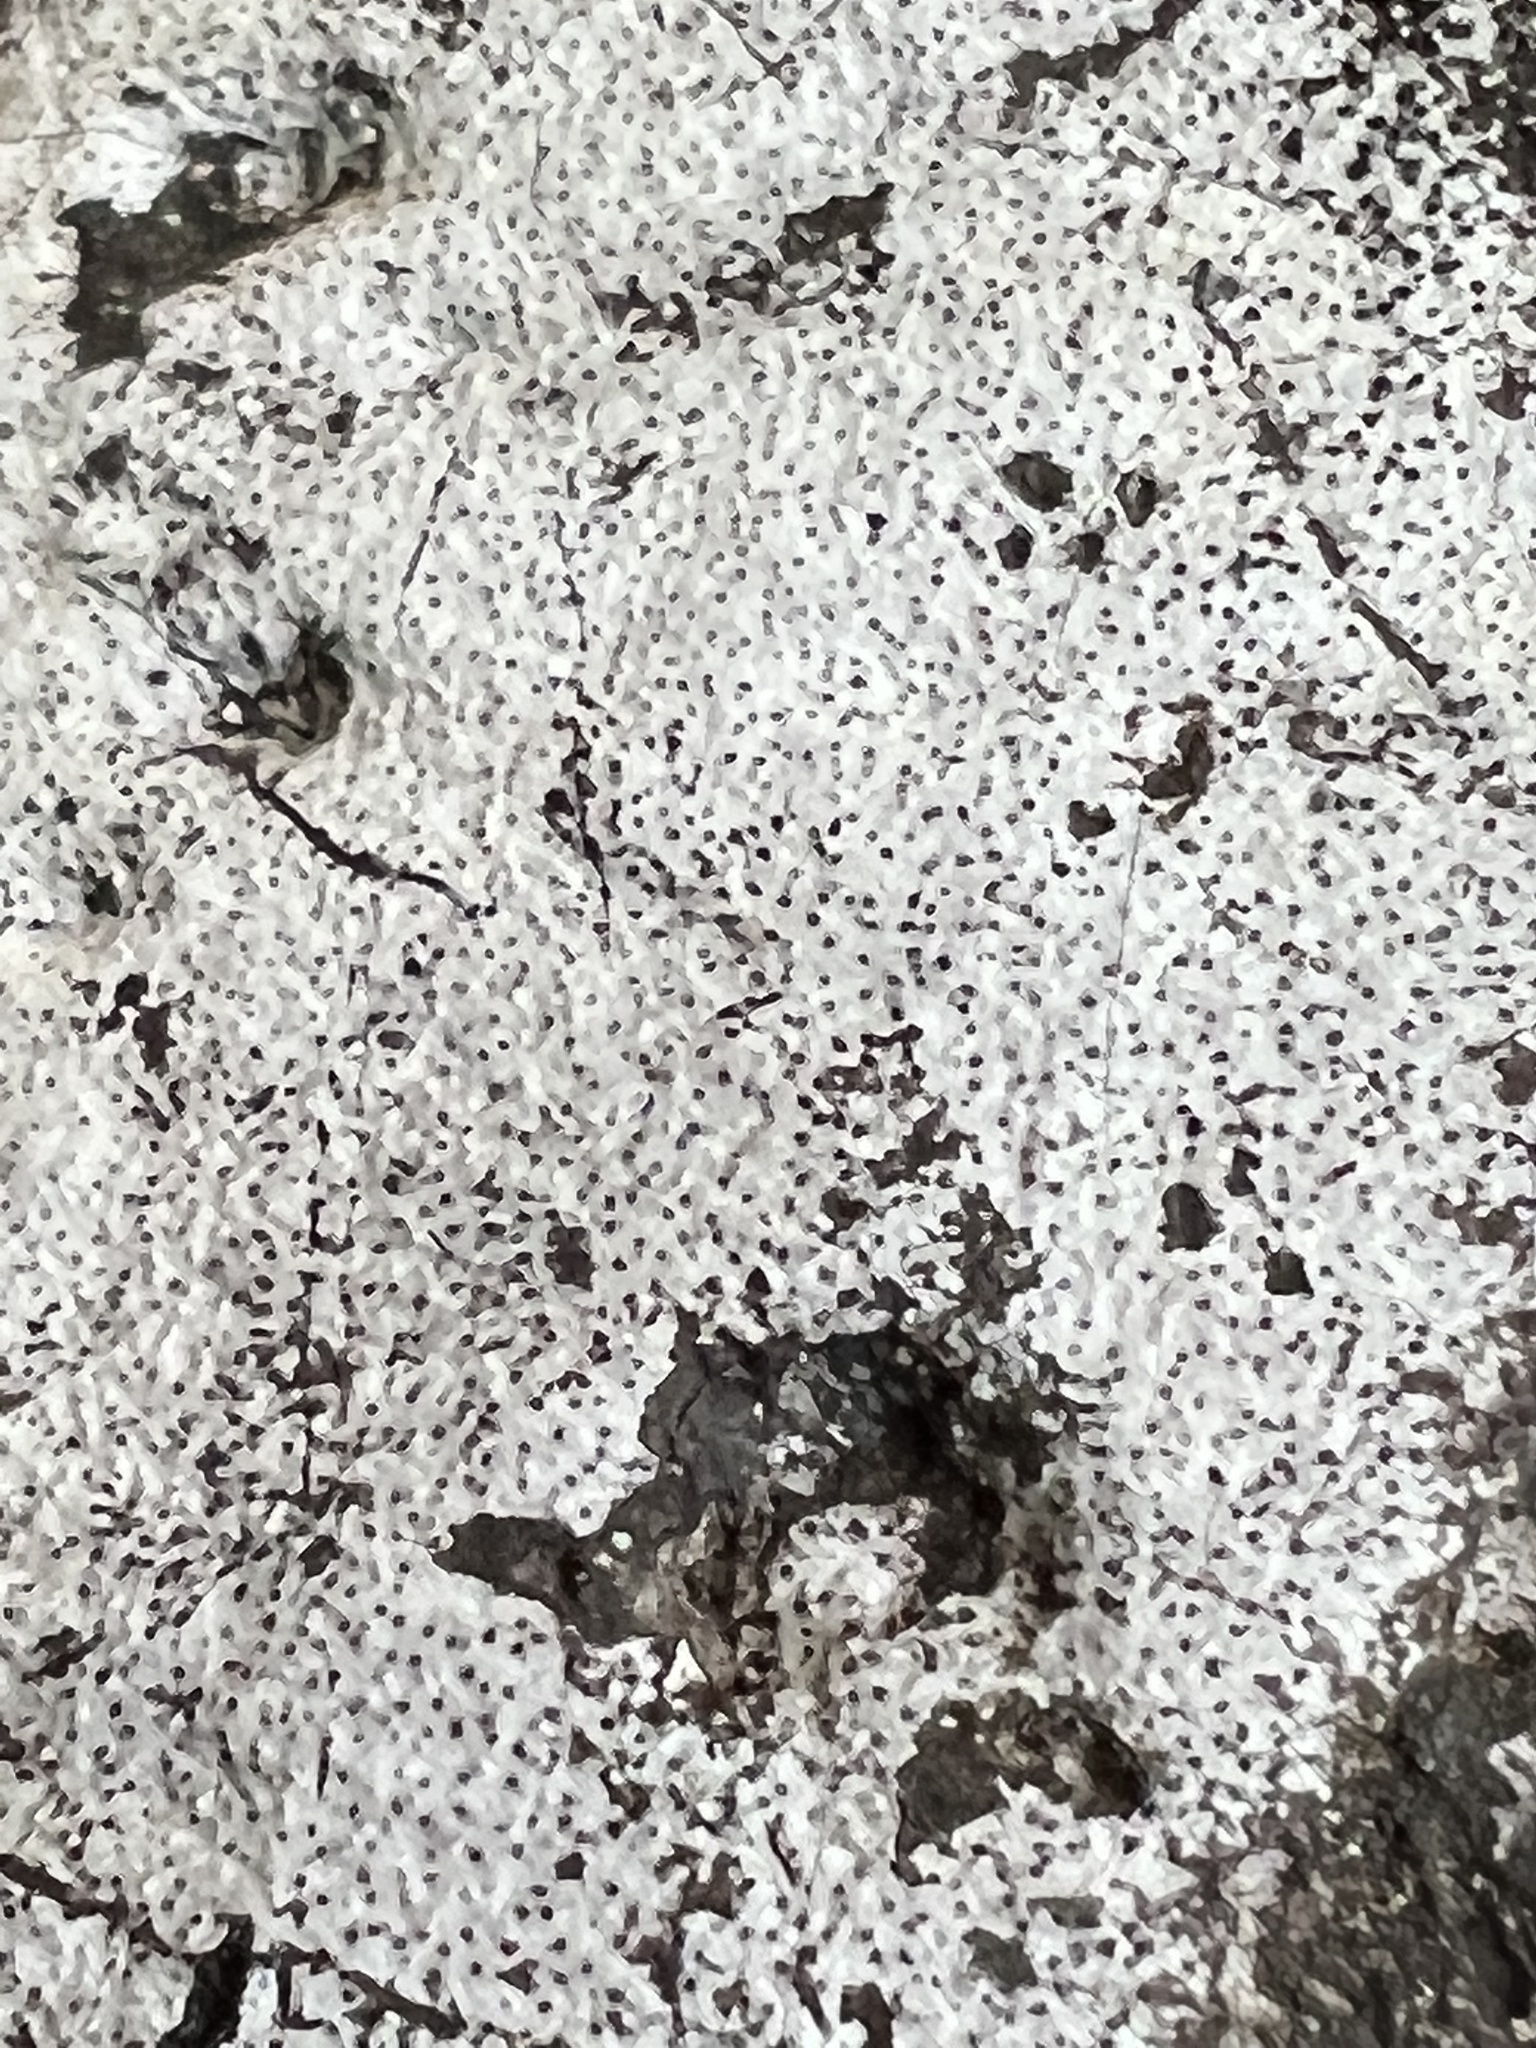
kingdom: Fungi
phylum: Ascomycota
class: Sordariomycetes
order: Xylariales
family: Graphostromataceae
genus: Biscogniauxia
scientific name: Biscogniauxia atropunctata
